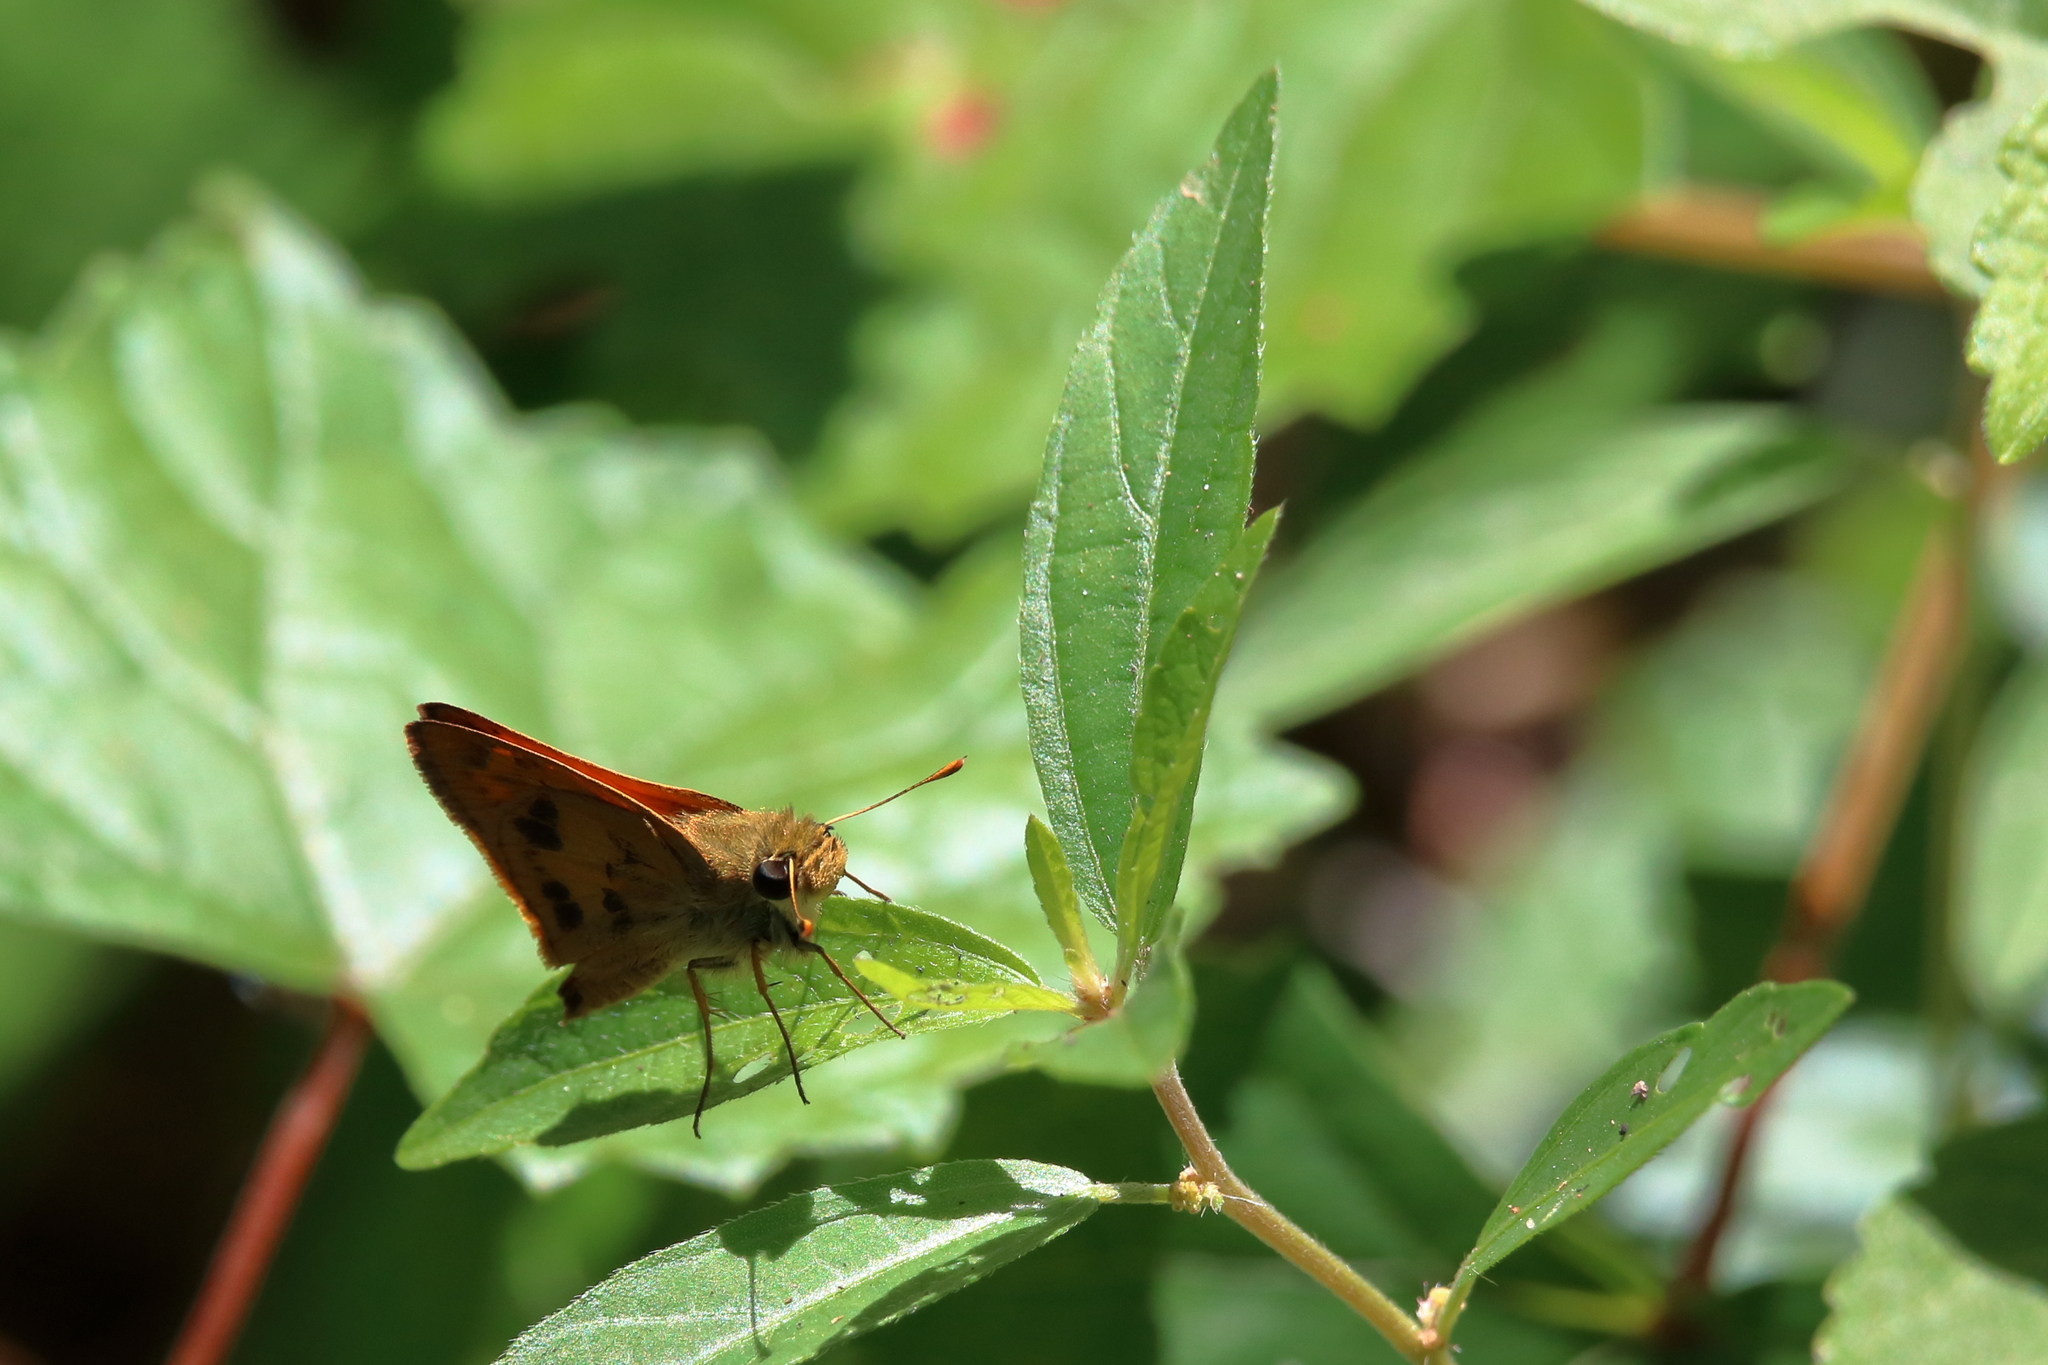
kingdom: Animalia
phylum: Arthropoda
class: Insecta
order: Lepidoptera
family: Hesperiidae
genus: Polites
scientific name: Polites vibex
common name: Whirlabout
